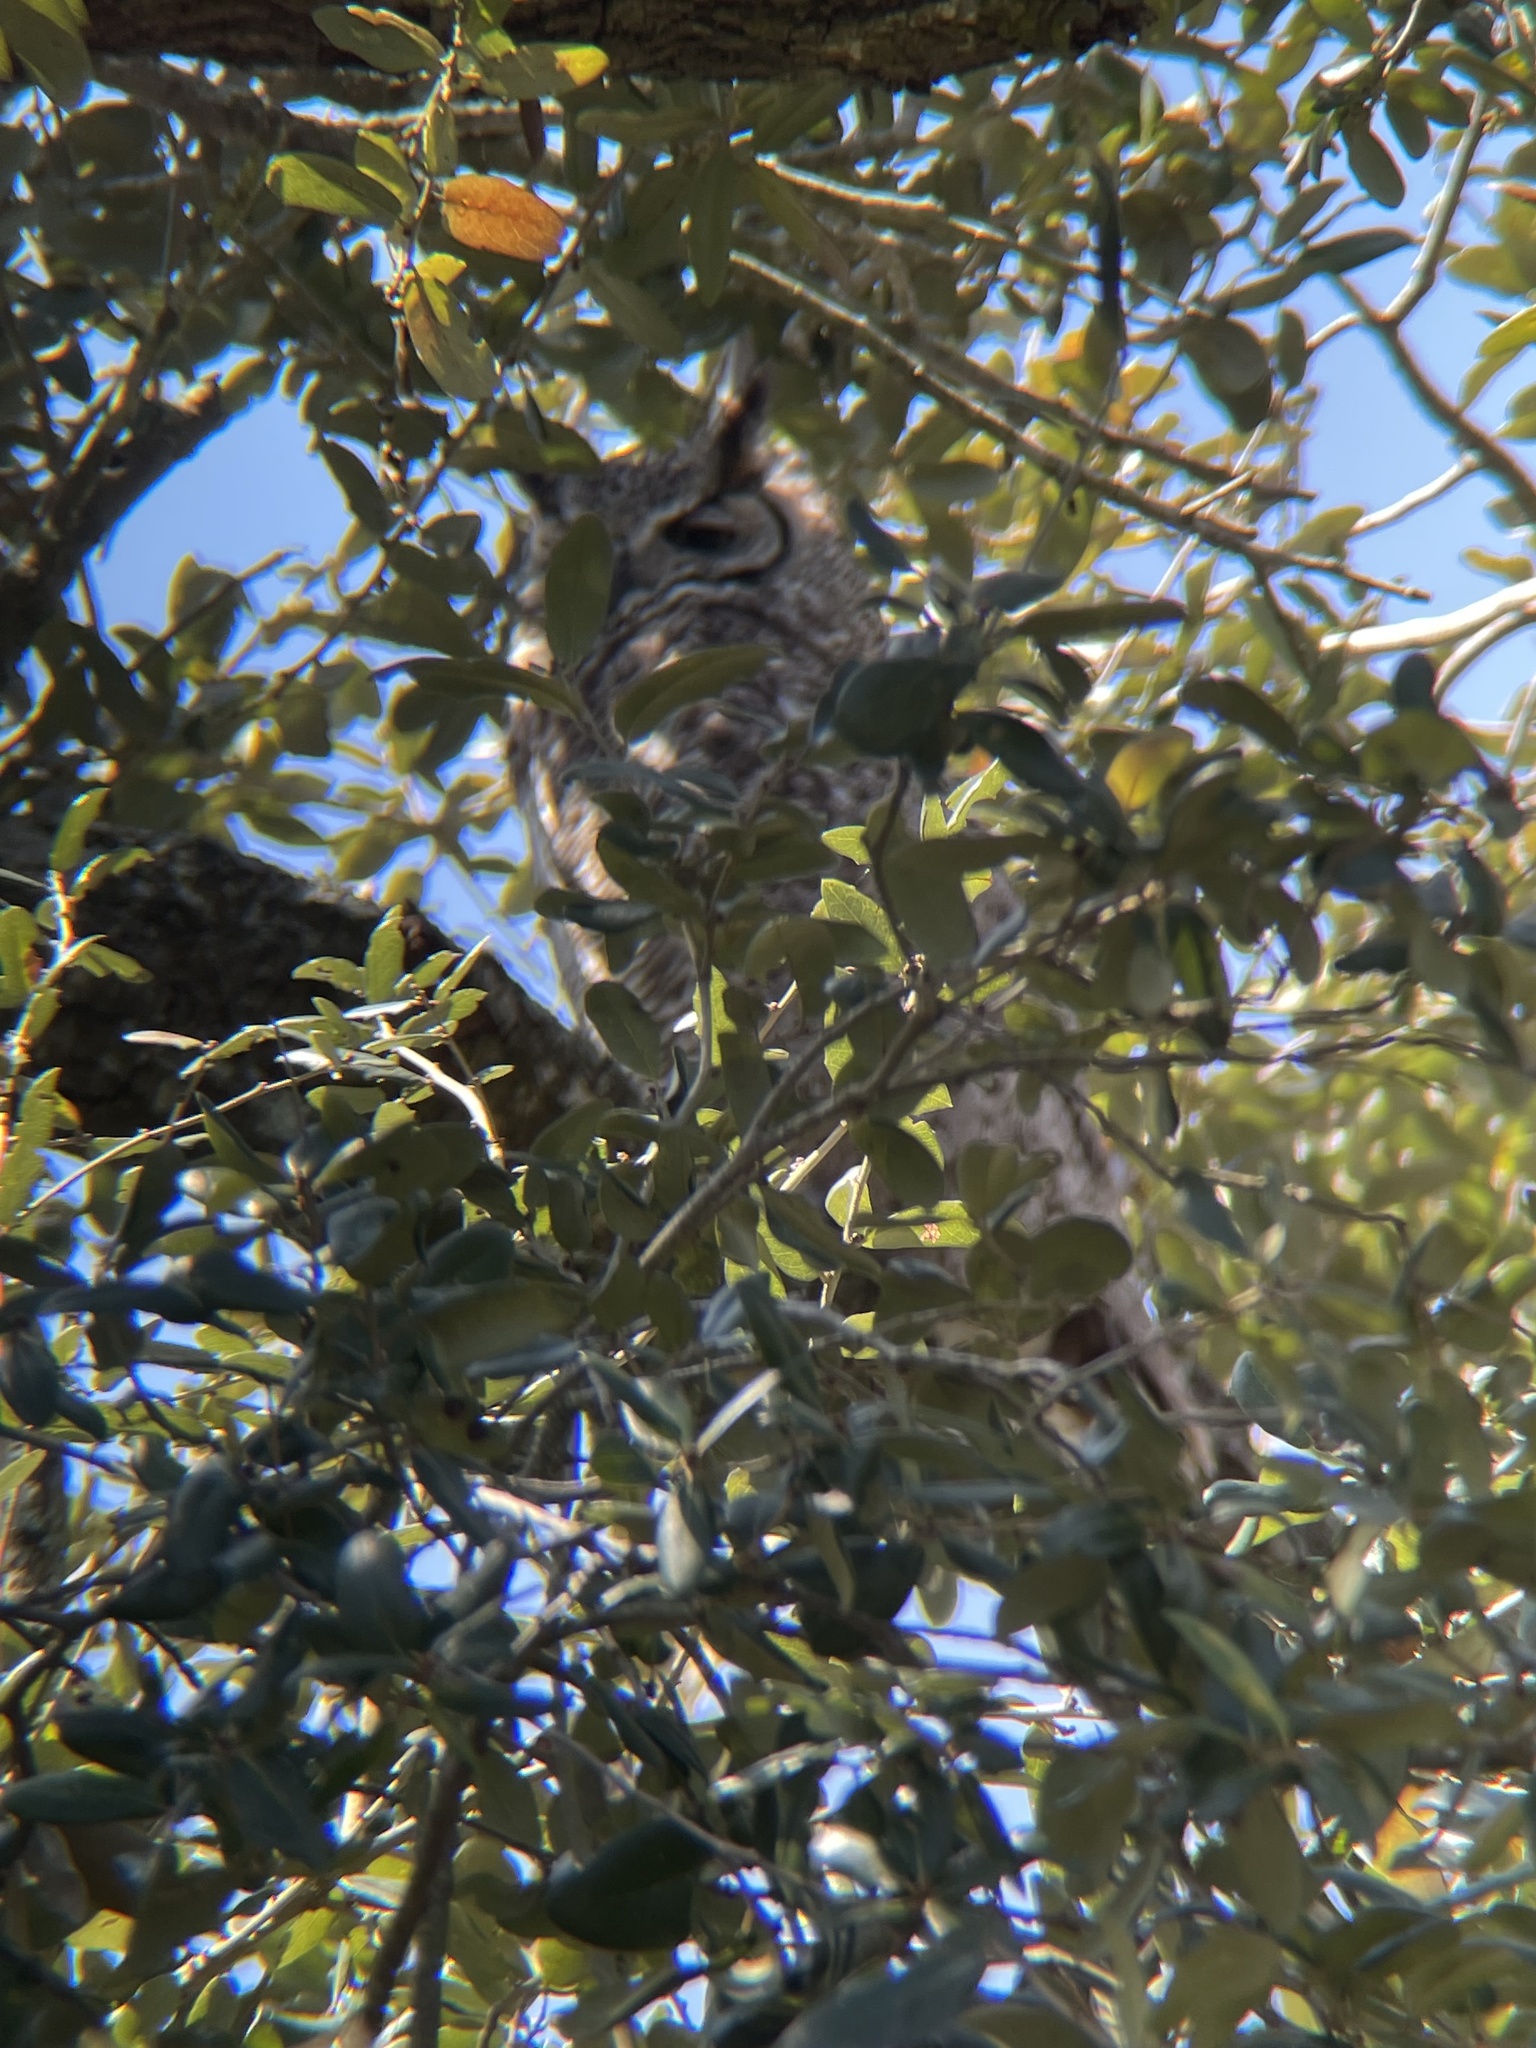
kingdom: Animalia
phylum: Chordata
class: Aves
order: Strigiformes
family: Strigidae
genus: Bubo
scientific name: Bubo virginianus
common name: Great horned owl
